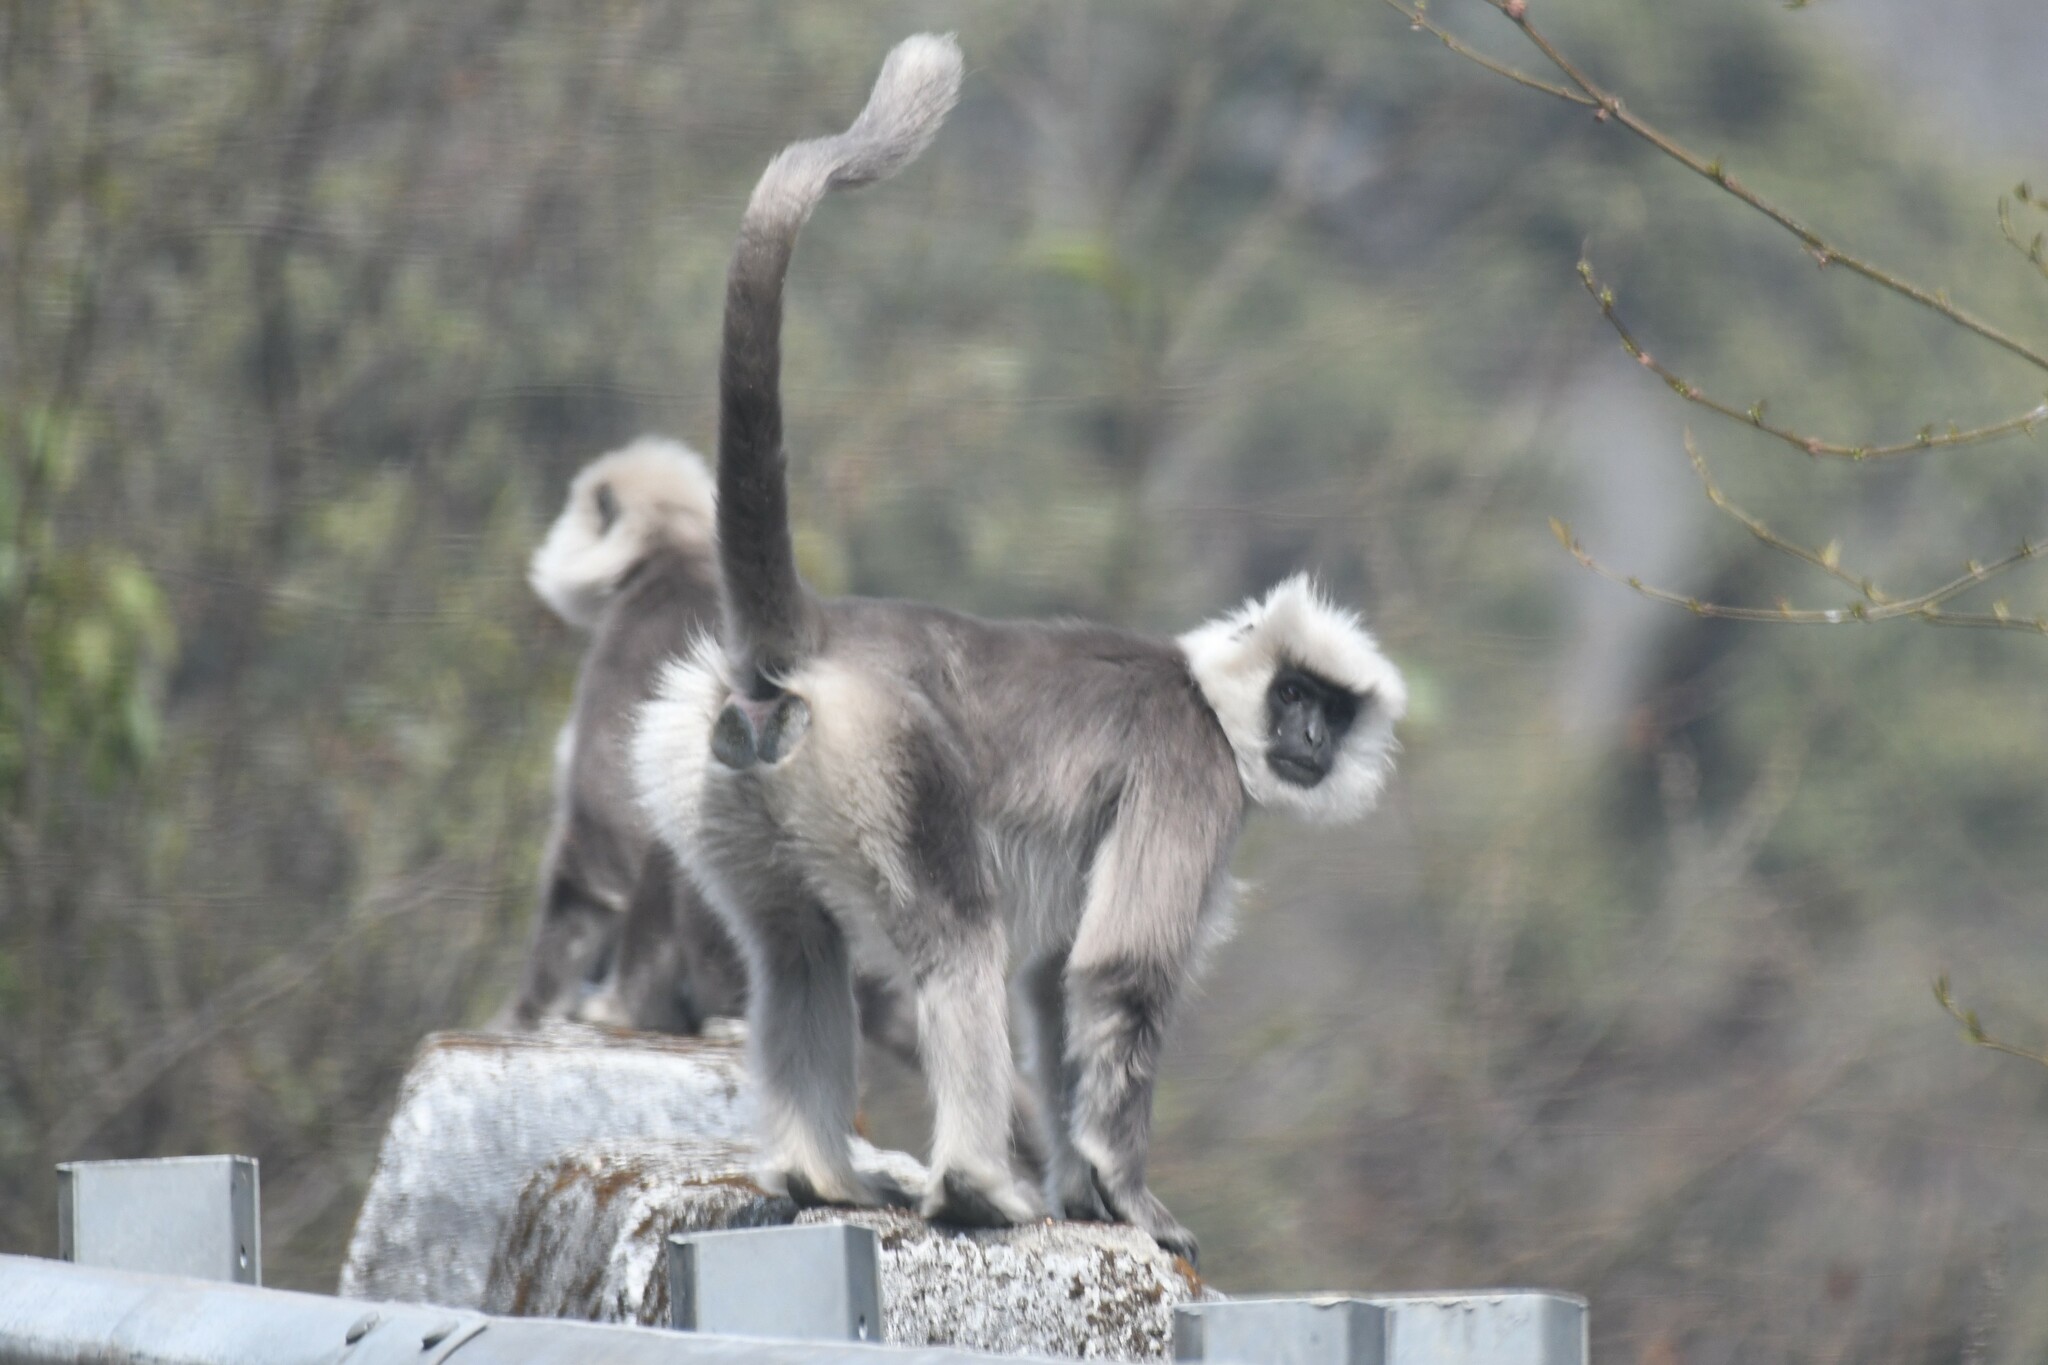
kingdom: Animalia
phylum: Chordata
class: Mammalia
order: Primates
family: Cercopithecidae
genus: Semnopithecus
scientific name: Semnopithecus schistaceus
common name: Nepal gray langur
